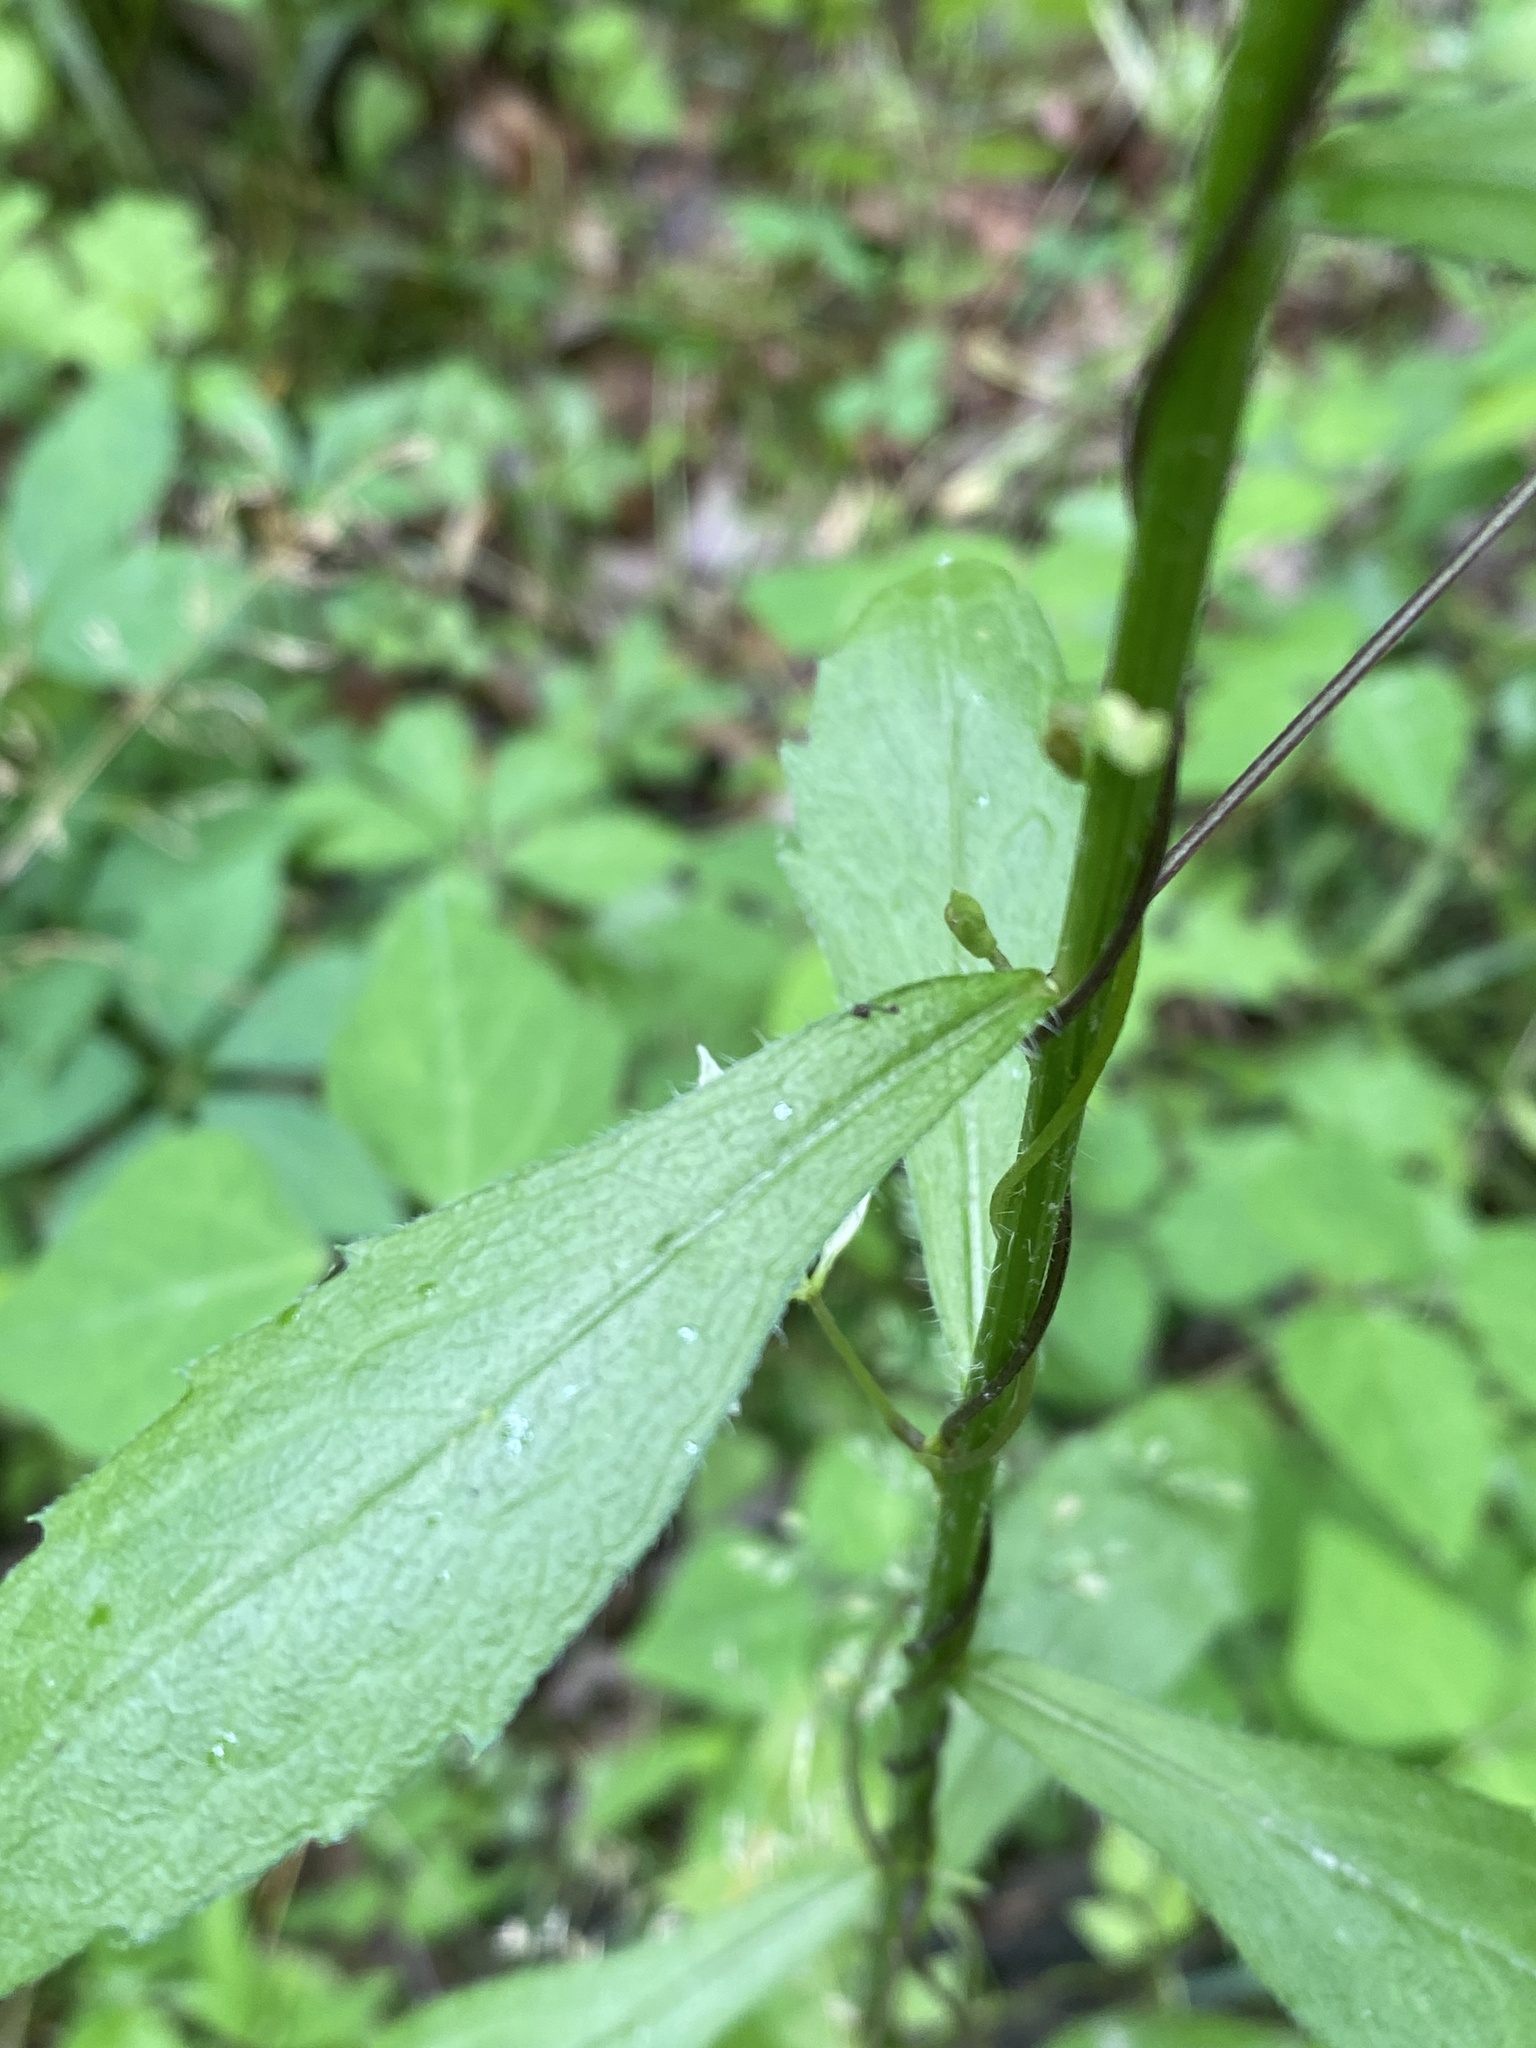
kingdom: Plantae
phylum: Tracheophyta
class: Magnoliopsida
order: Asterales
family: Asteraceae
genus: Erigeron
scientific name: Erigeron annuus
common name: Tall fleabane
